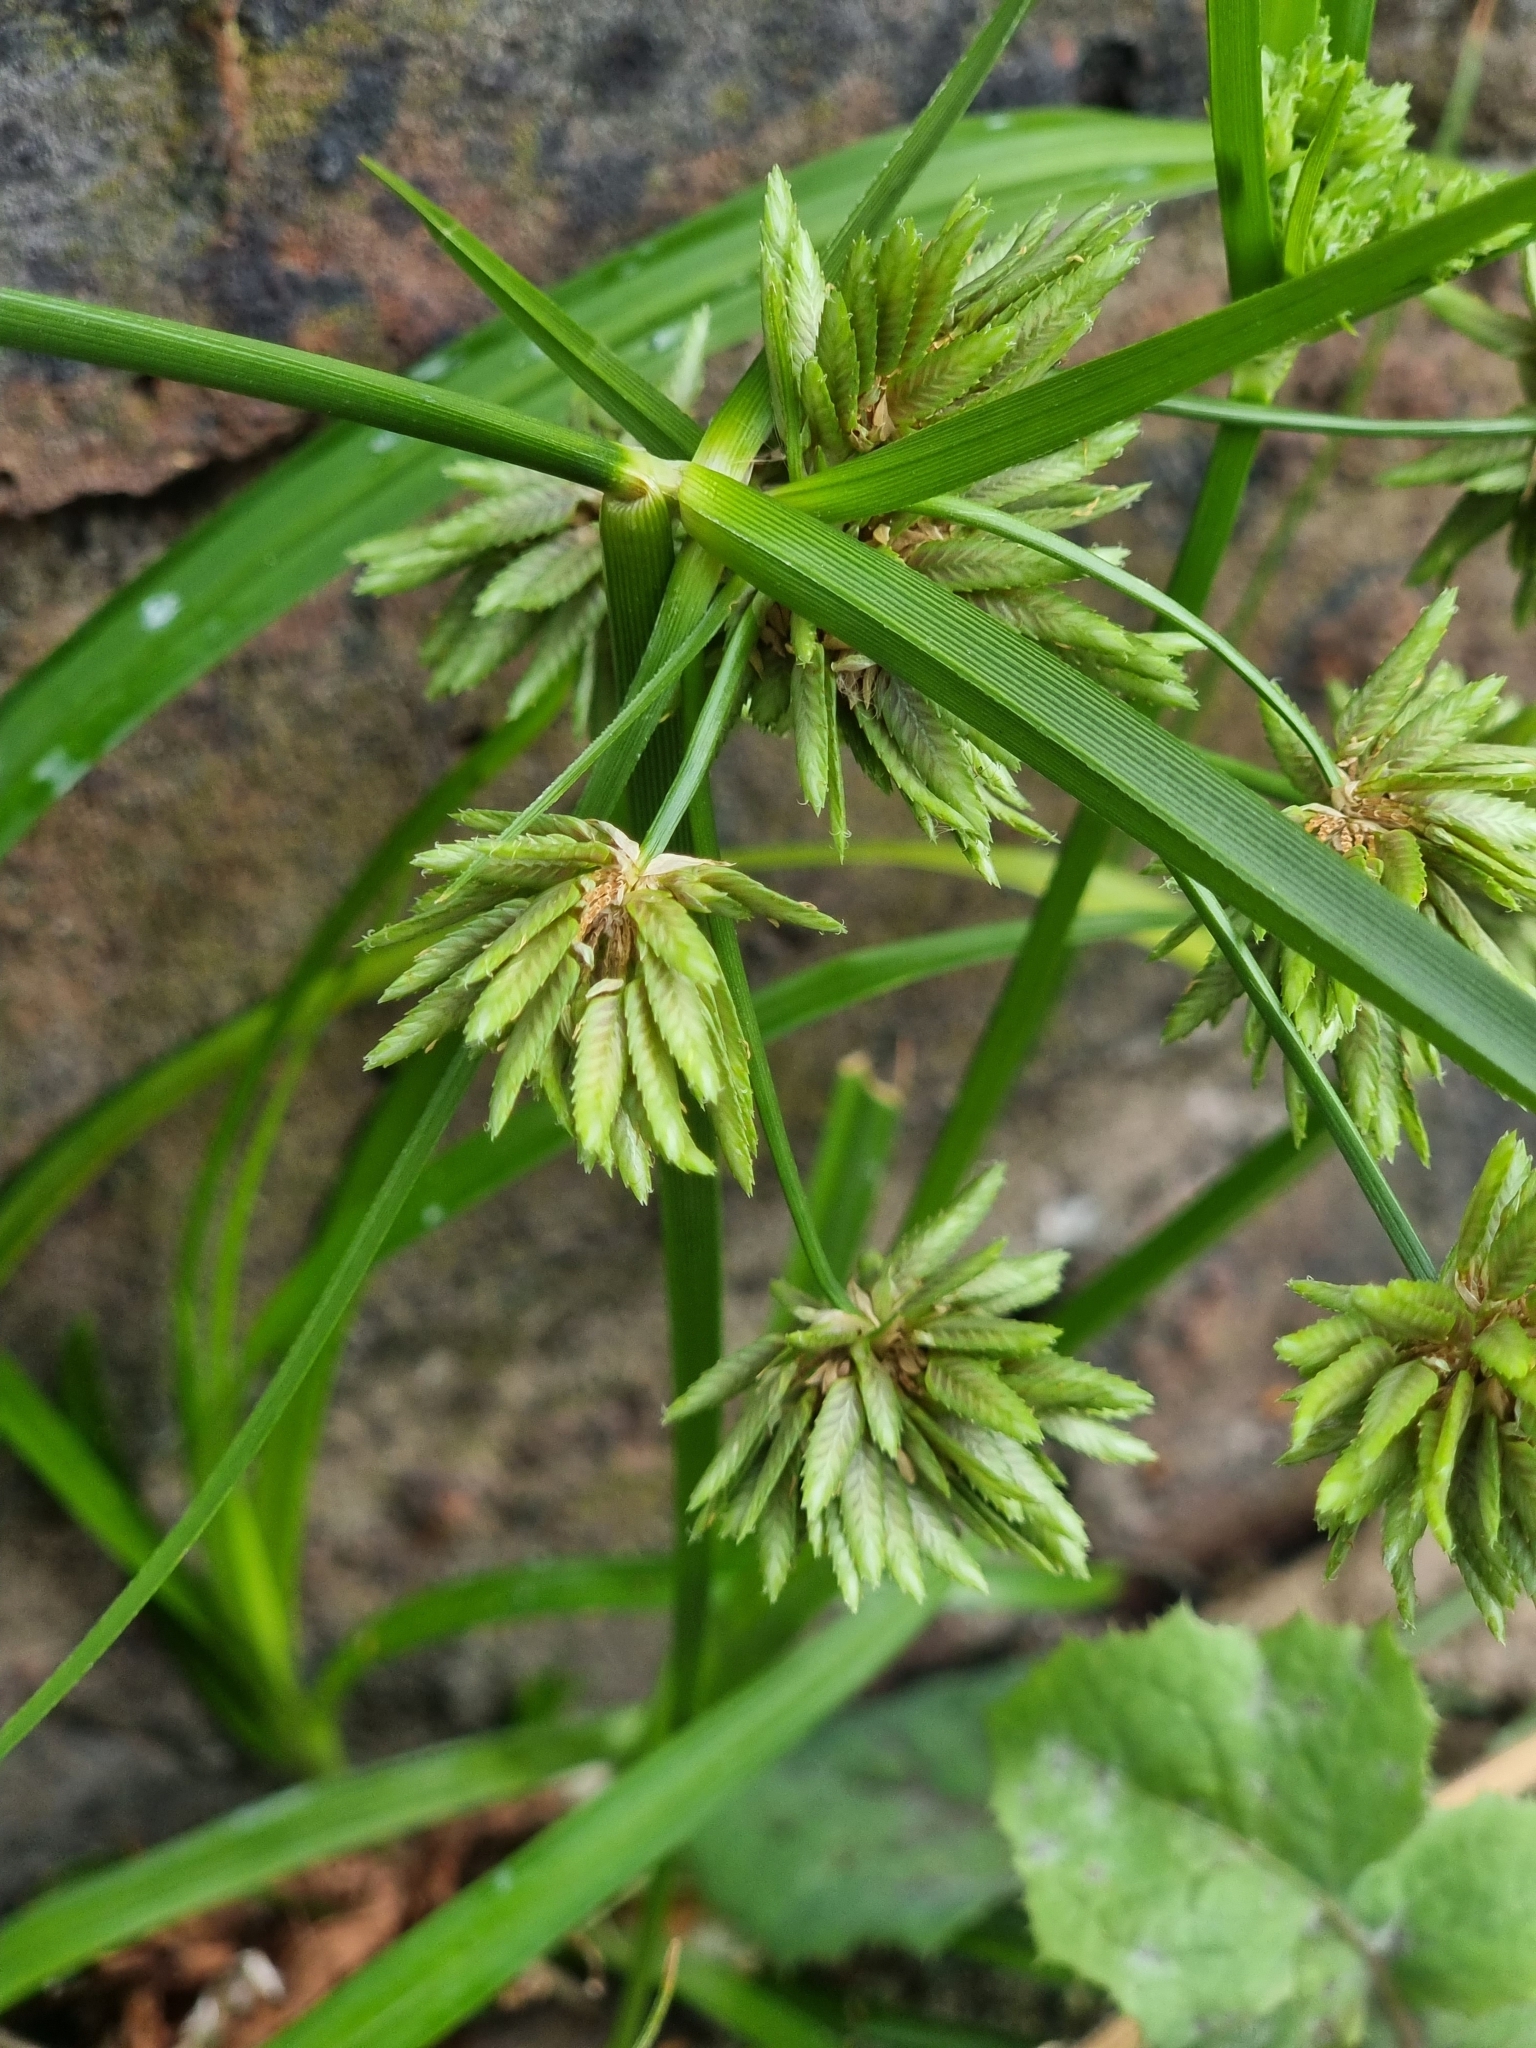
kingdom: Plantae
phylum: Tracheophyta
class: Liliopsida
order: Poales
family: Cyperaceae
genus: Cyperus
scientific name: Cyperus eragrostis
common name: Tall flatsedge
